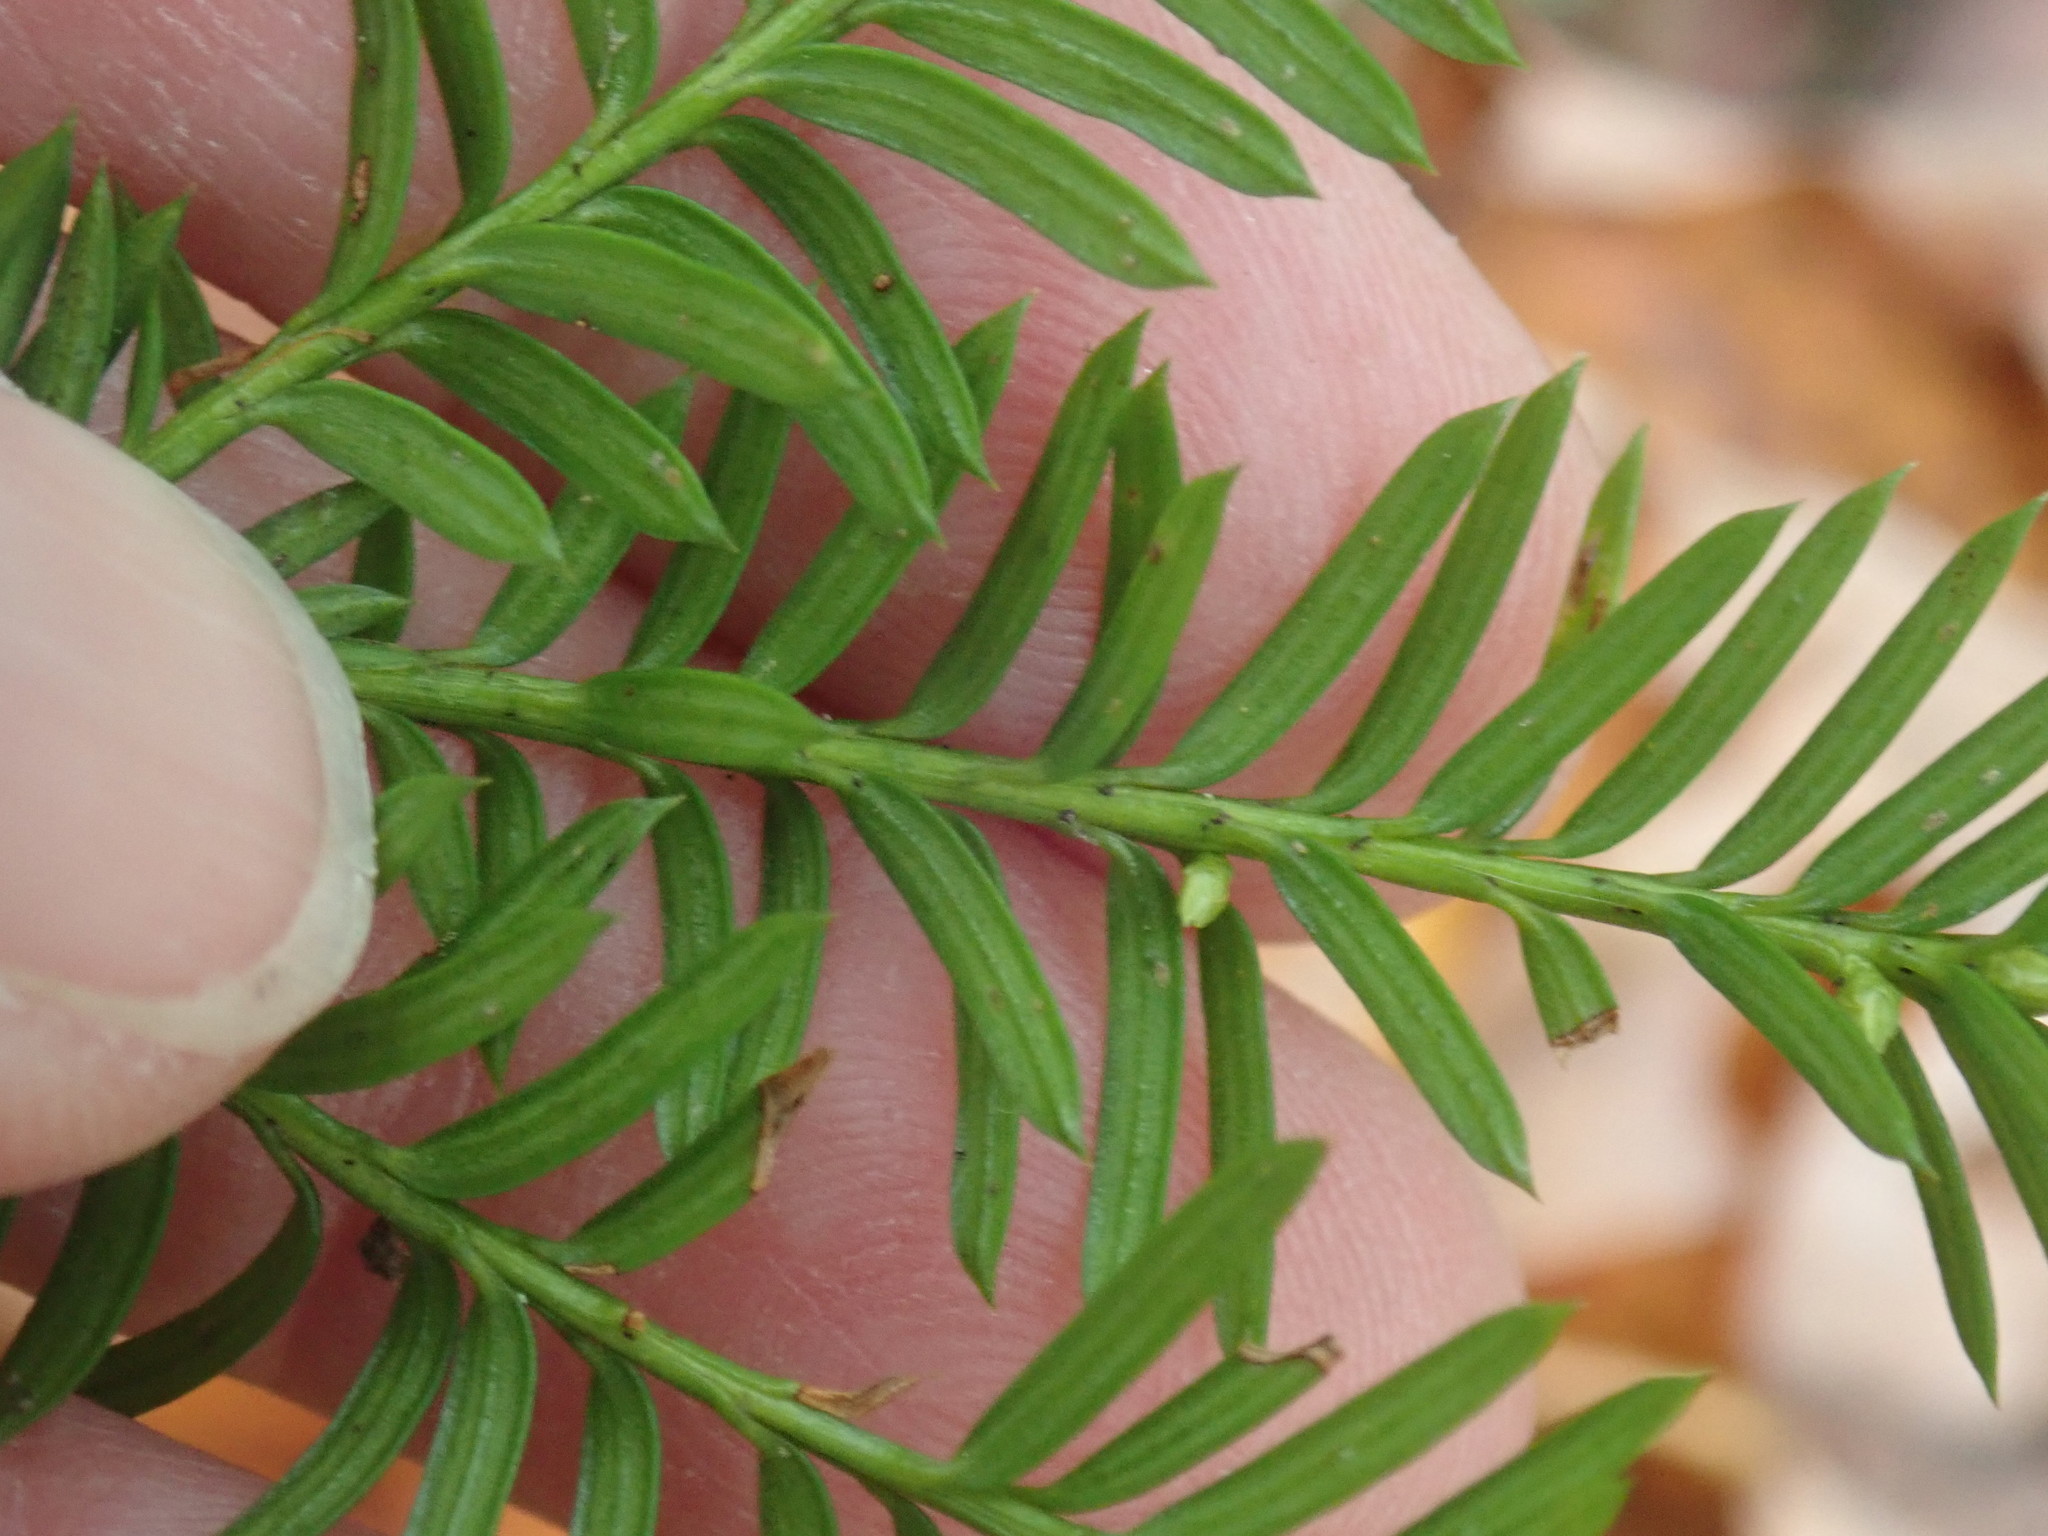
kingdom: Plantae
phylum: Tracheophyta
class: Pinopsida
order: Pinales
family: Taxaceae
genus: Taxus
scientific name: Taxus canadensis
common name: American yew
